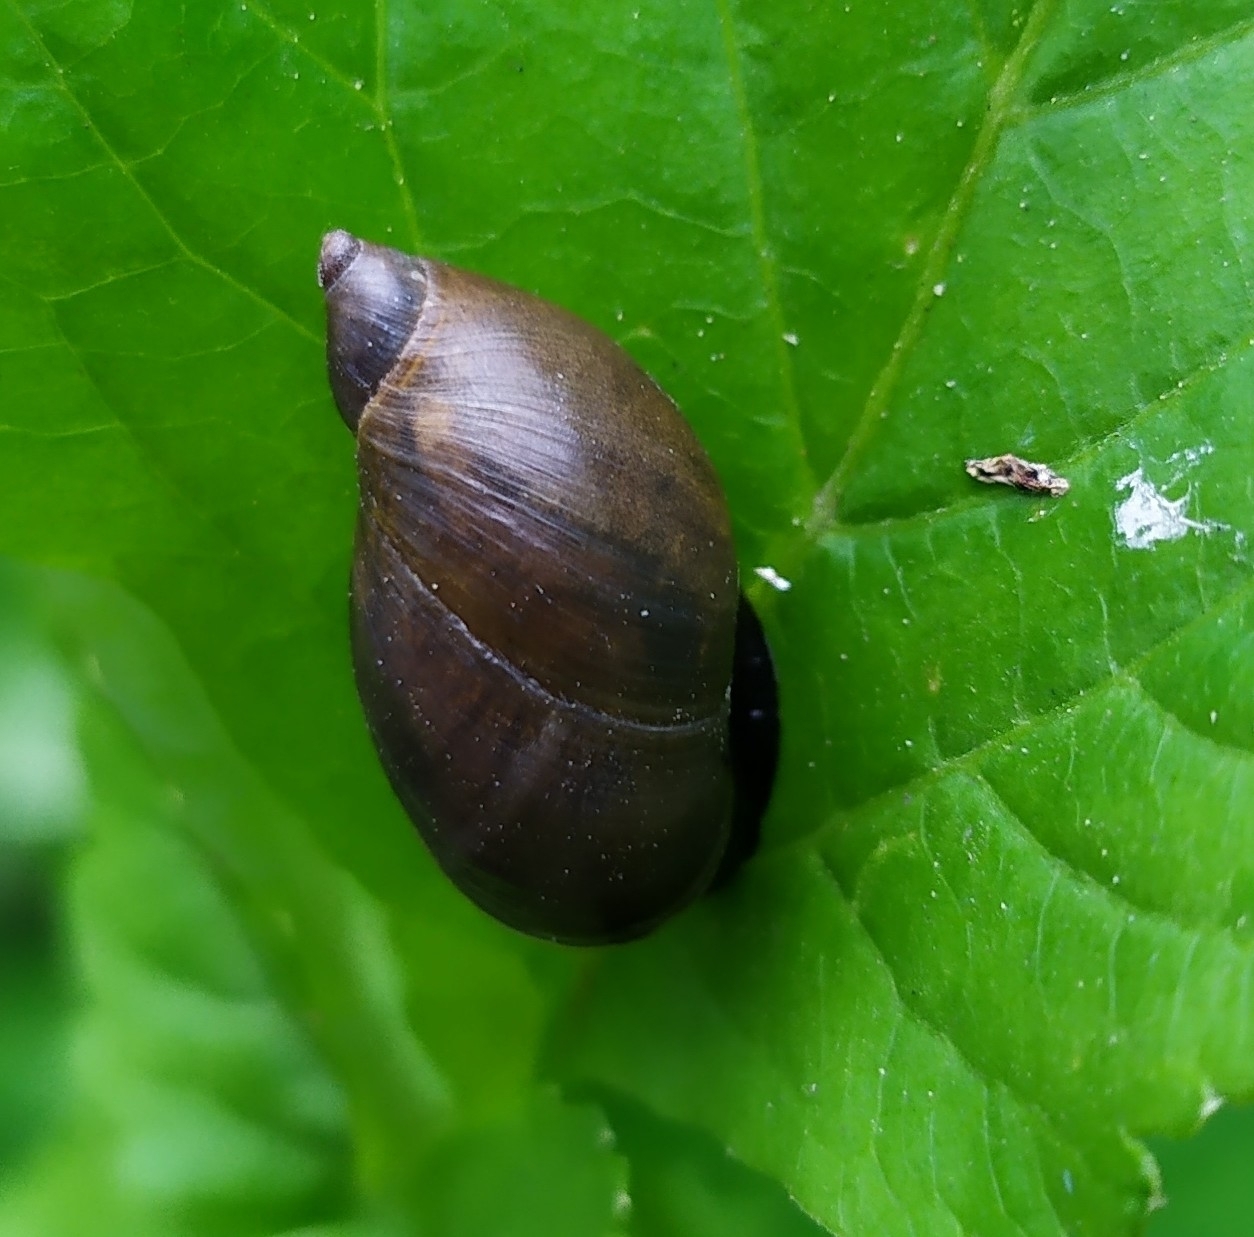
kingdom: Animalia
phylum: Mollusca
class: Gastropoda
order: Stylommatophora
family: Succineidae
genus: Succinea
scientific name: Succinea putris
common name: European ambersnail
